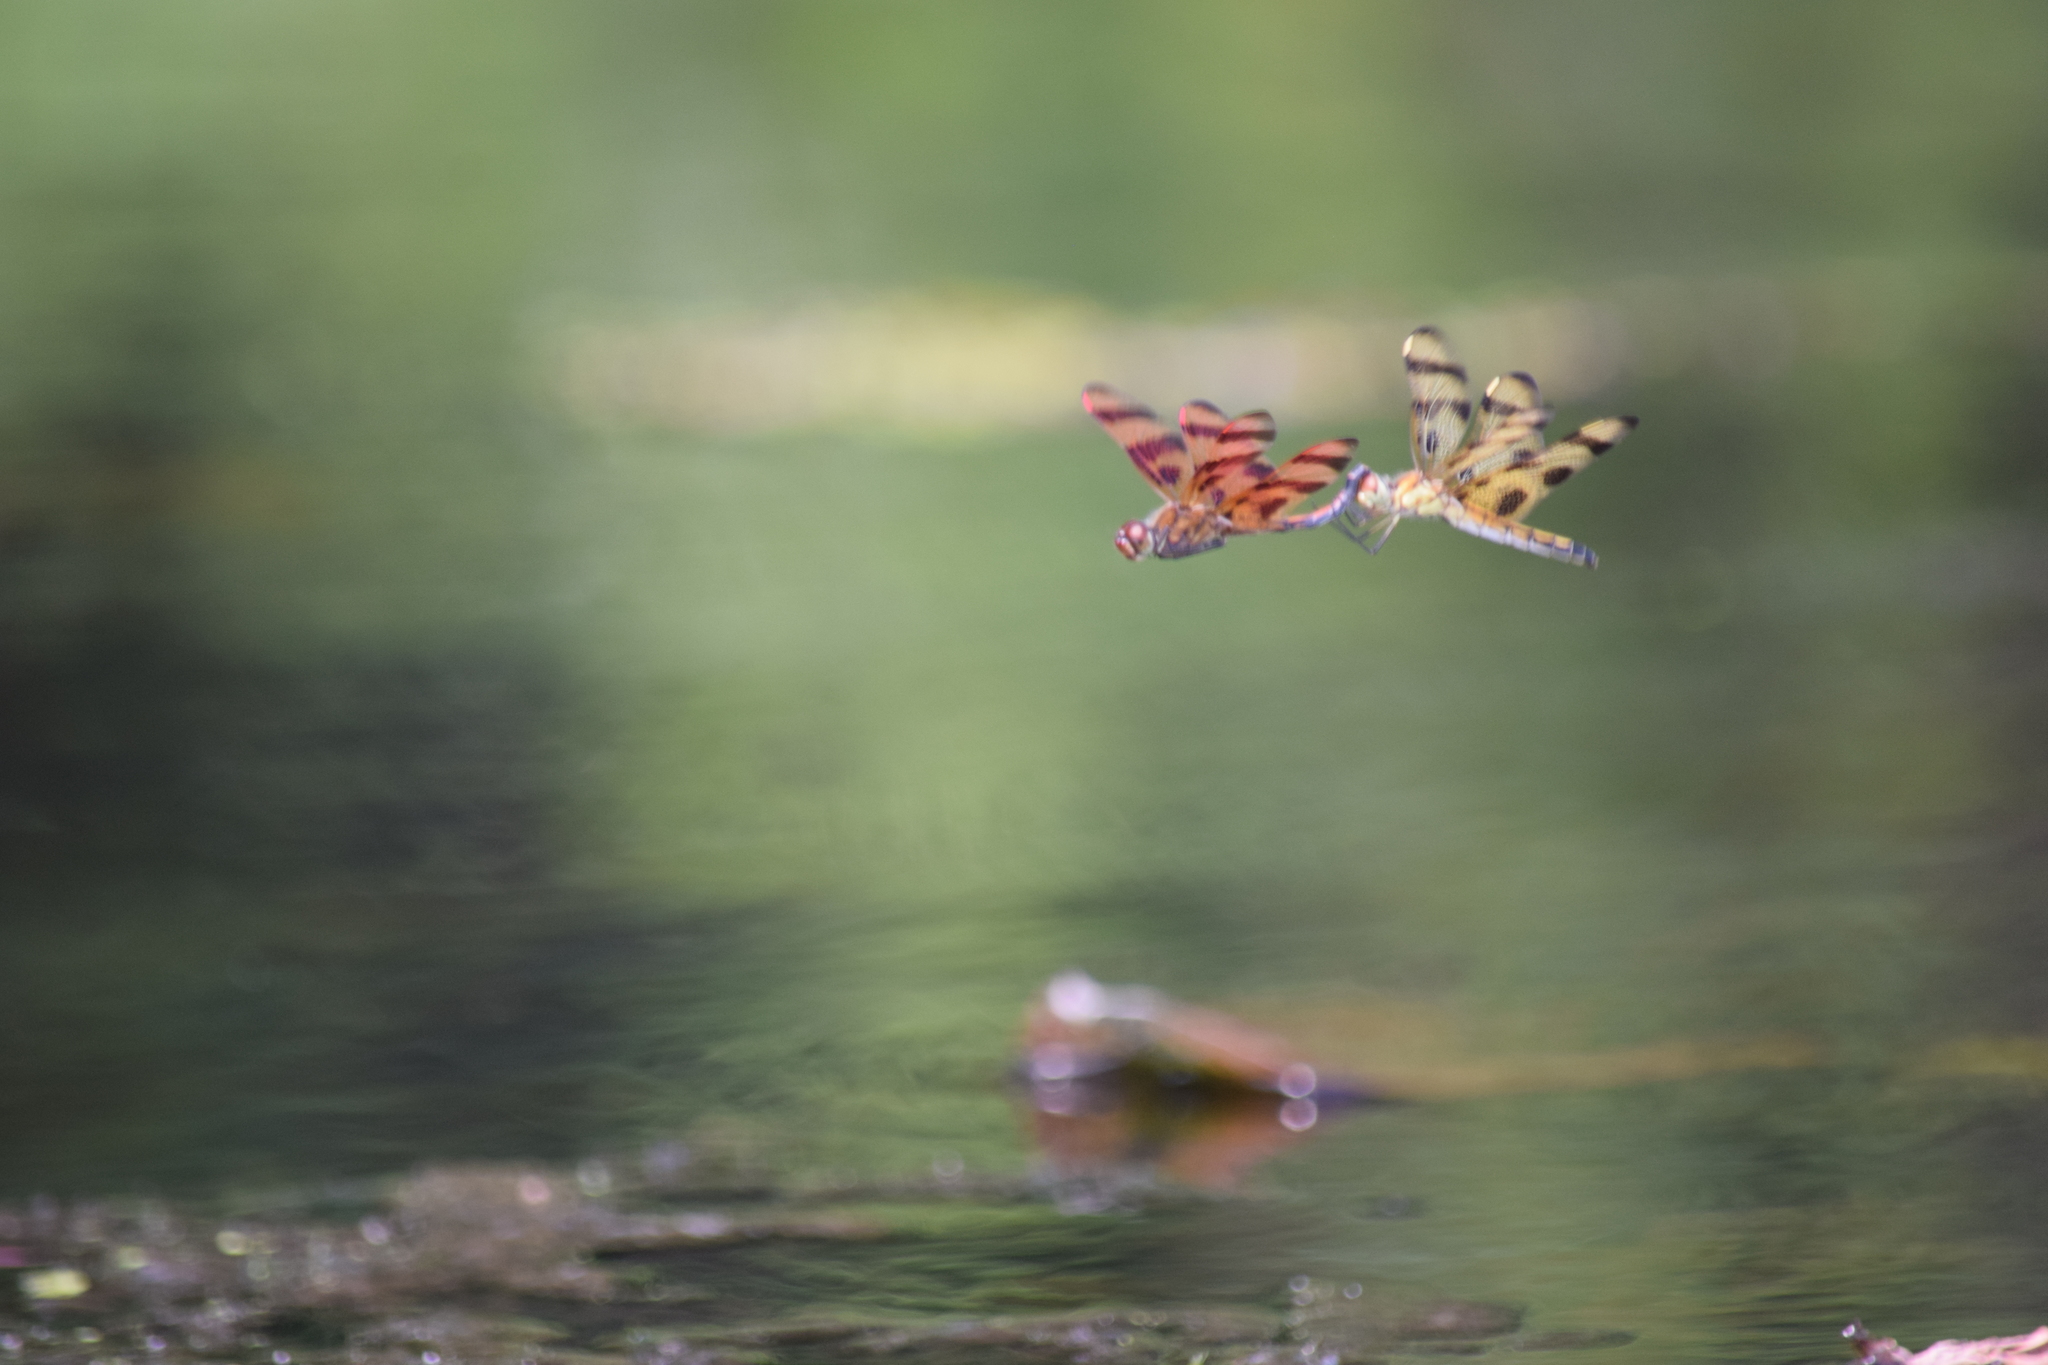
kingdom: Animalia
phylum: Arthropoda
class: Insecta
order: Odonata
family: Libellulidae
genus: Celithemis
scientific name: Celithemis eponina
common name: Halloween pennant
